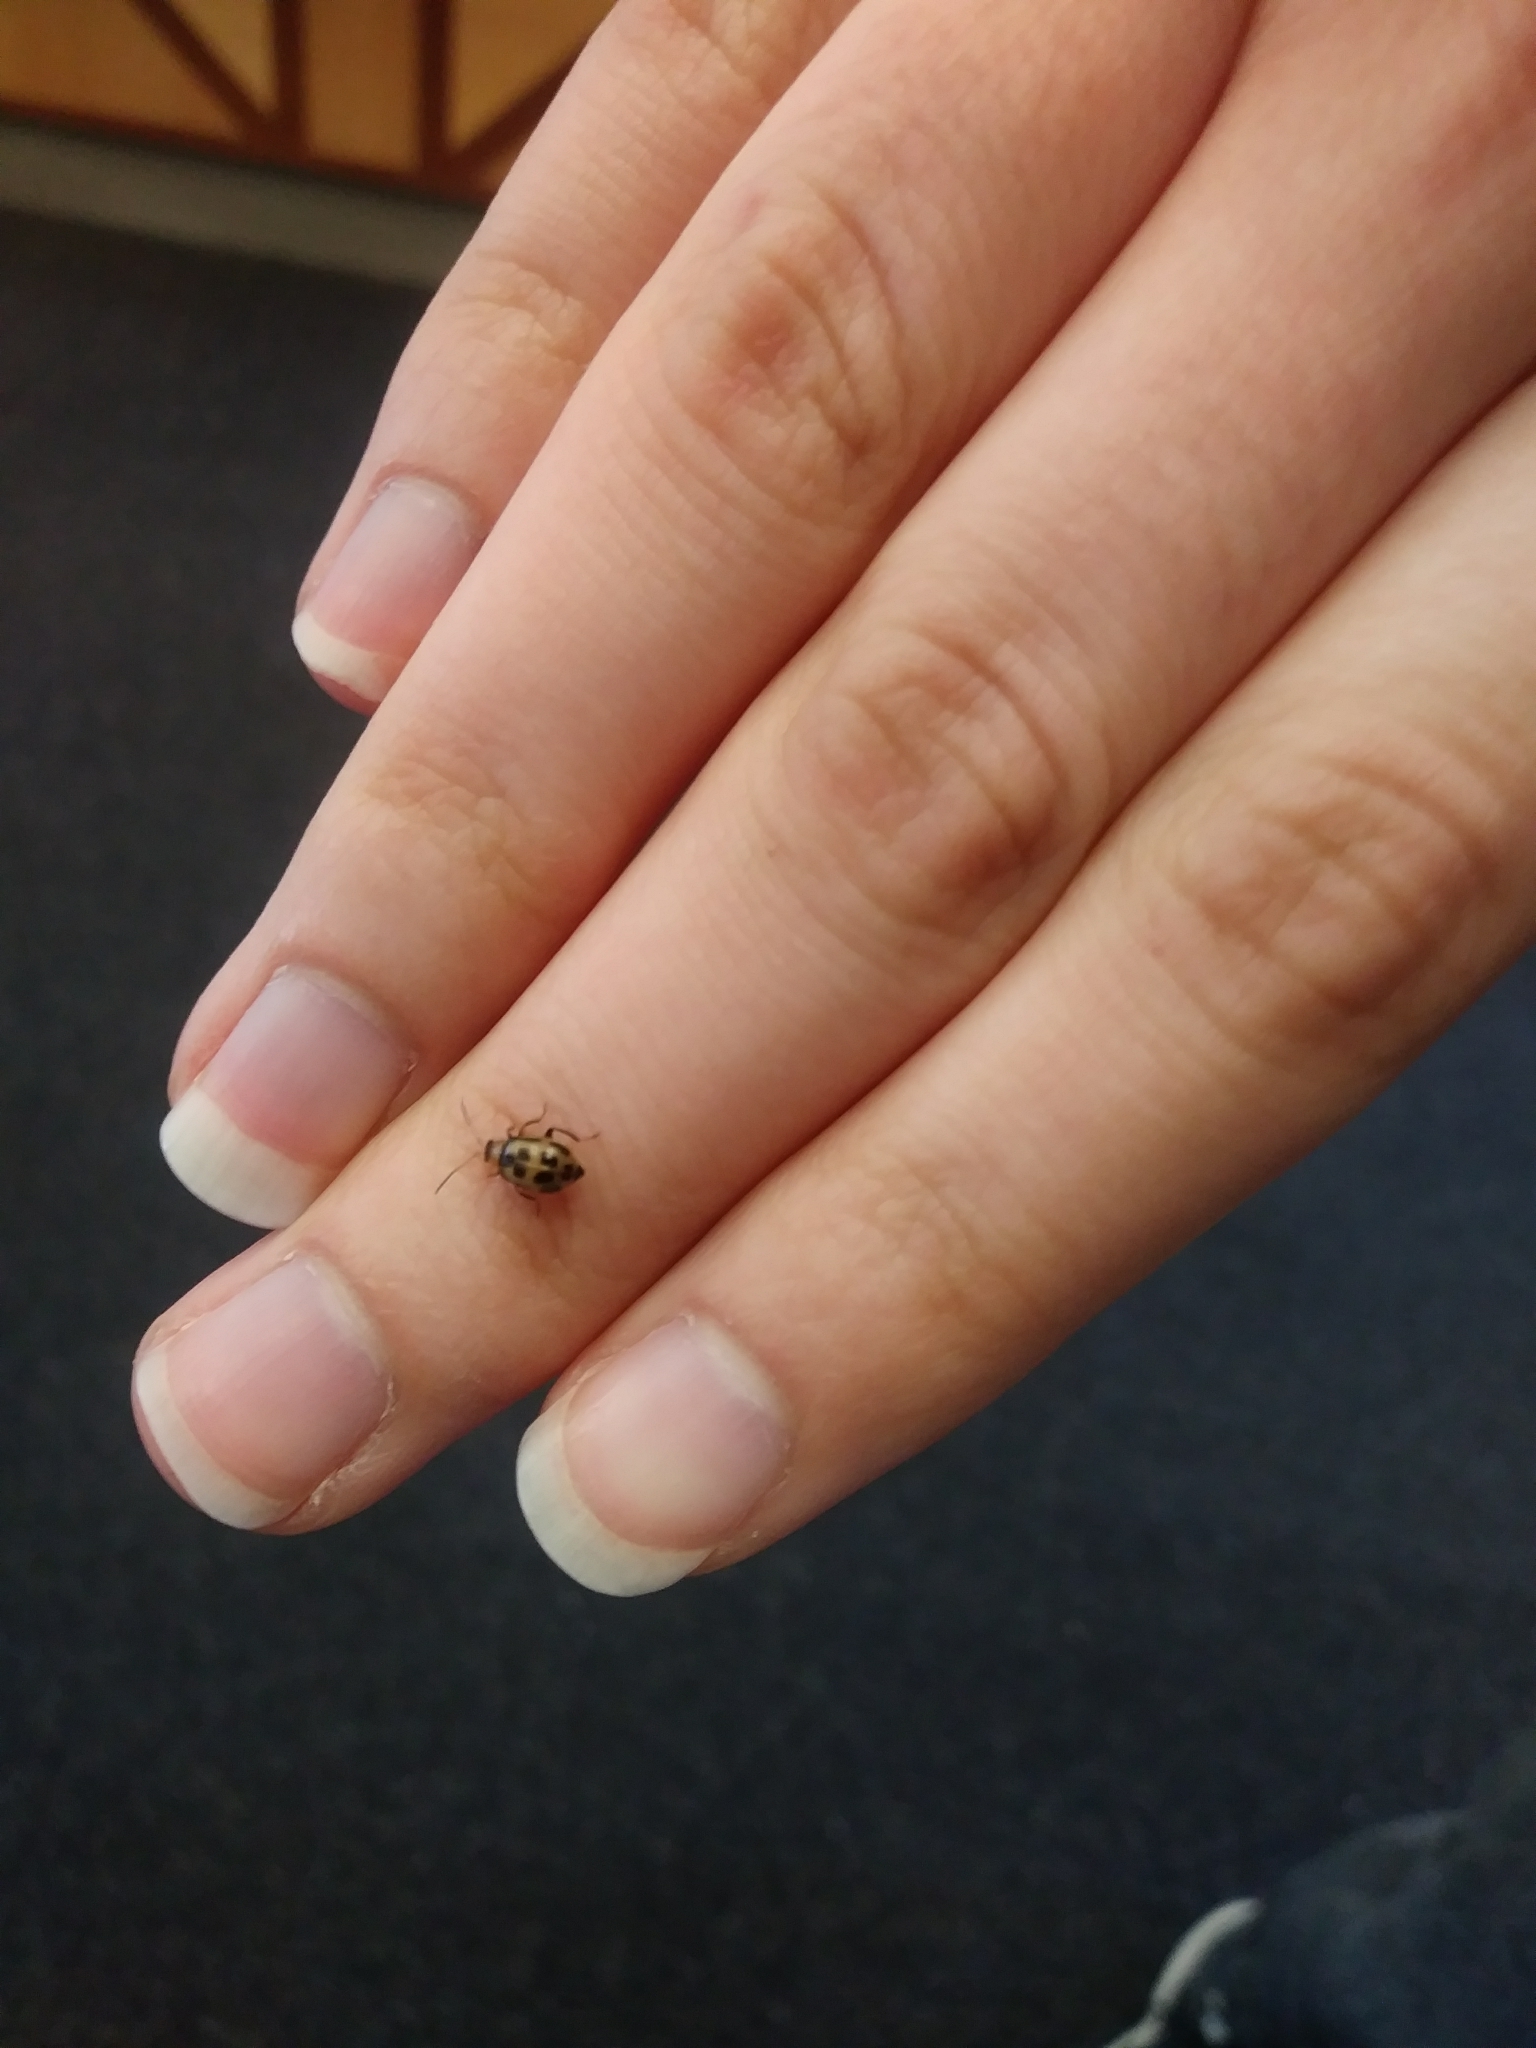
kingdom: Animalia
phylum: Arthropoda
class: Insecta
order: Coleoptera
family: Chrysomelidae
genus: Cerotoma
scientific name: Cerotoma trifurcata
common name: Bean leaf beetle
